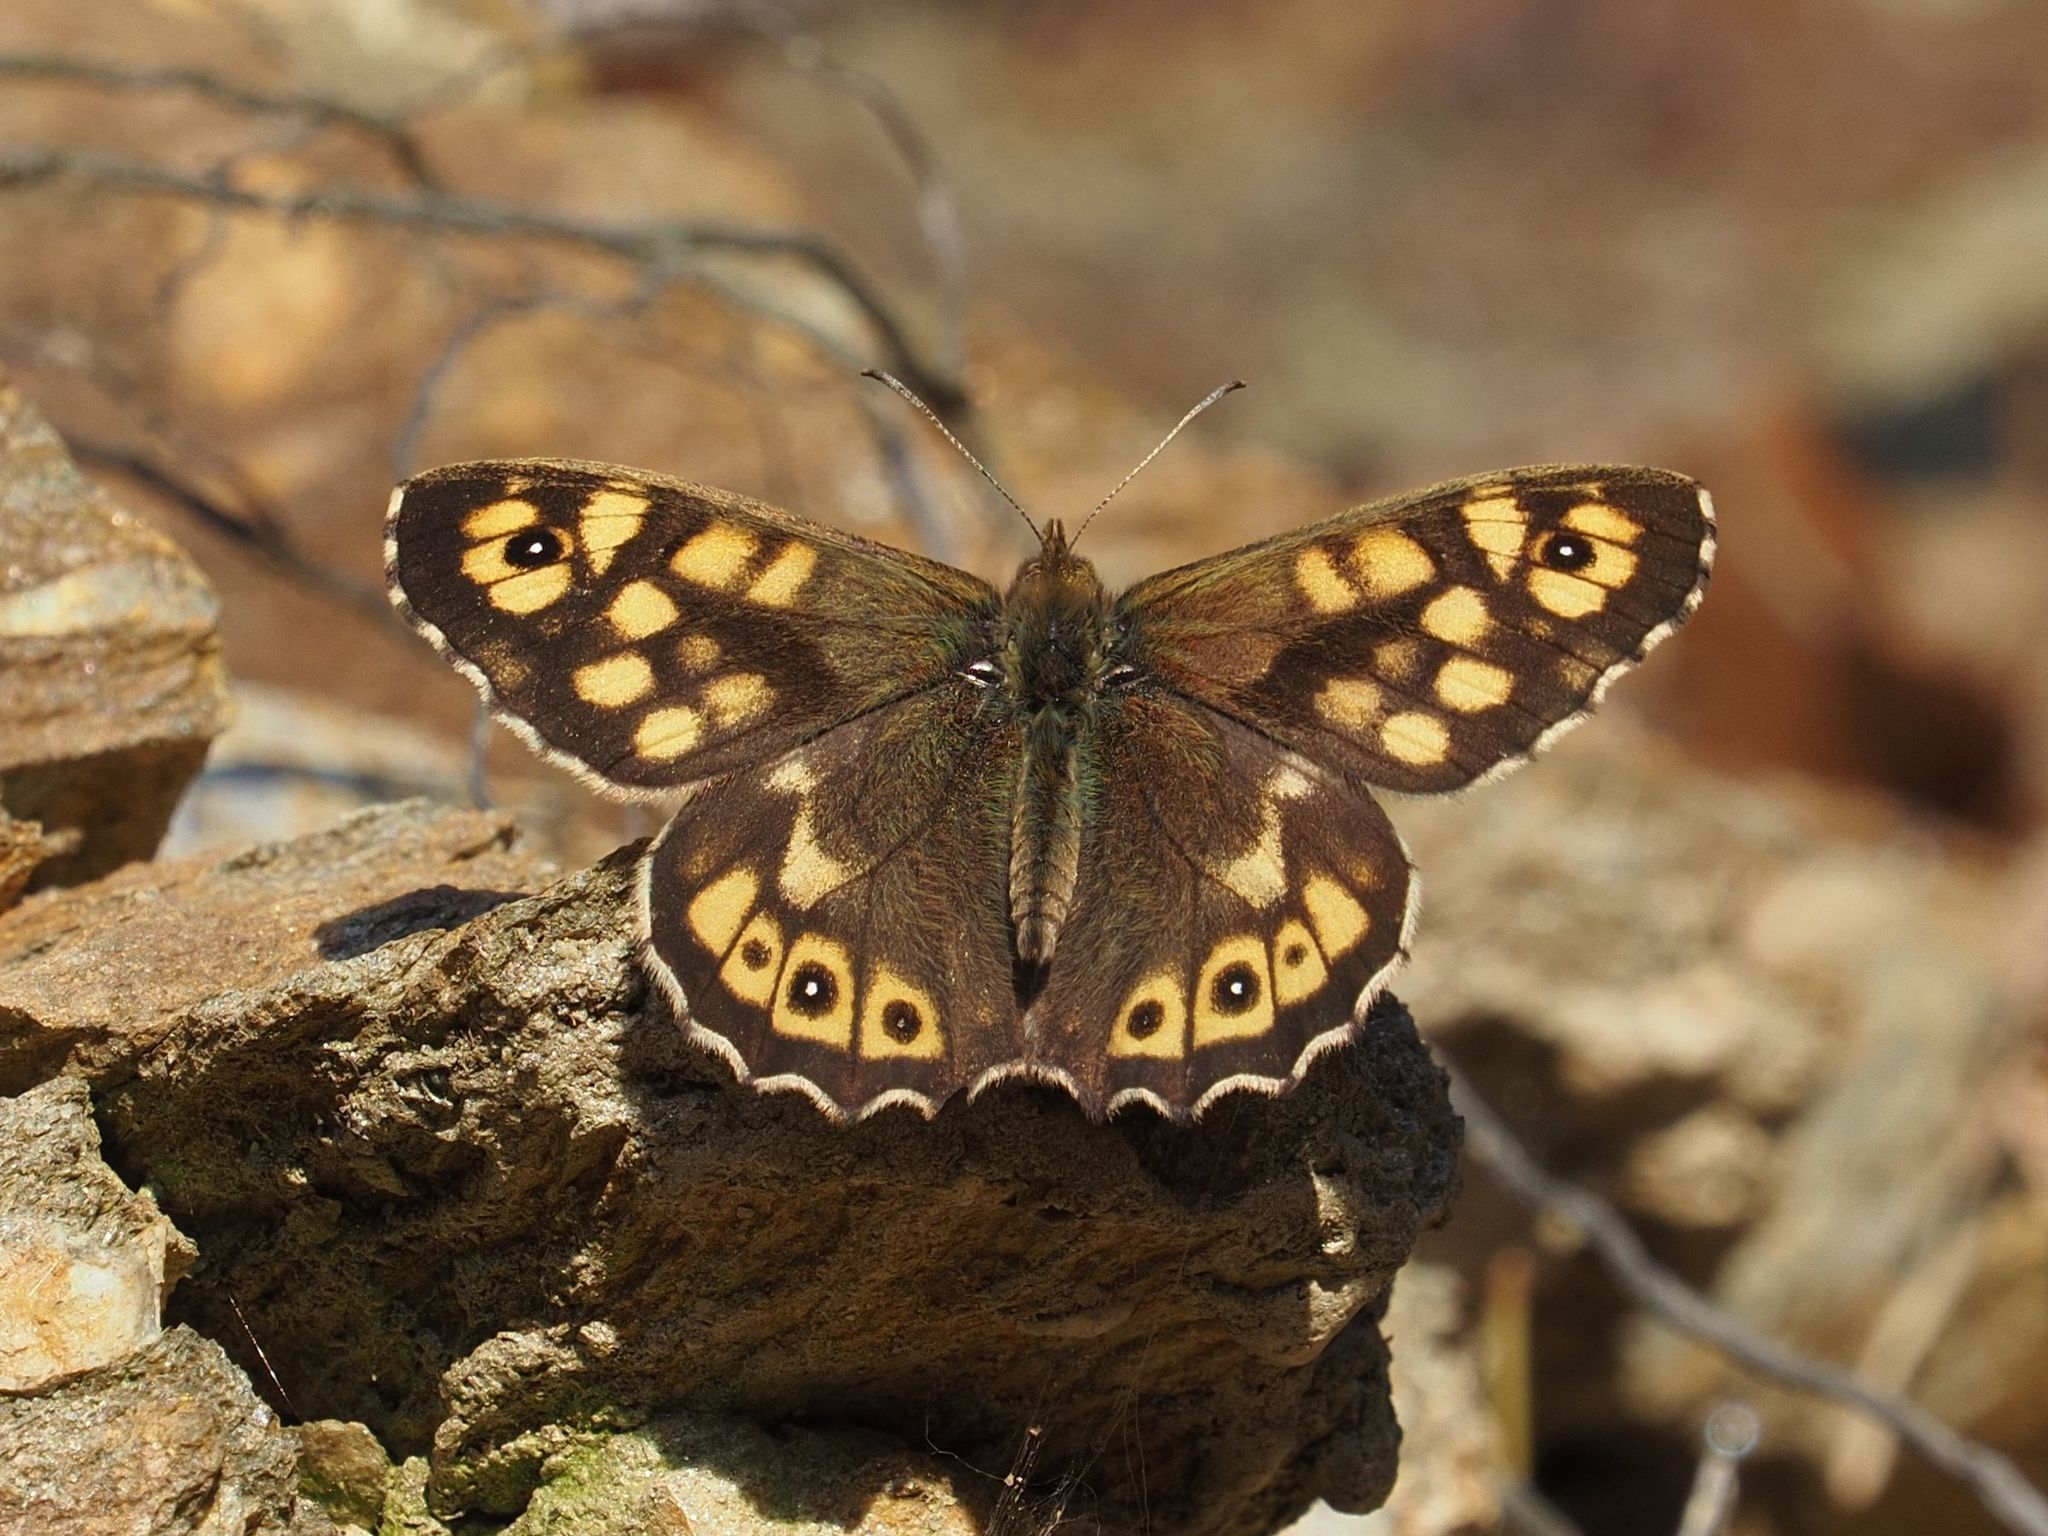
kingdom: Animalia
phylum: Arthropoda
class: Insecta
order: Lepidoptera
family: Nymphalidae
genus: Pararge
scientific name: Pararge aegeria
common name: Speckled wood
